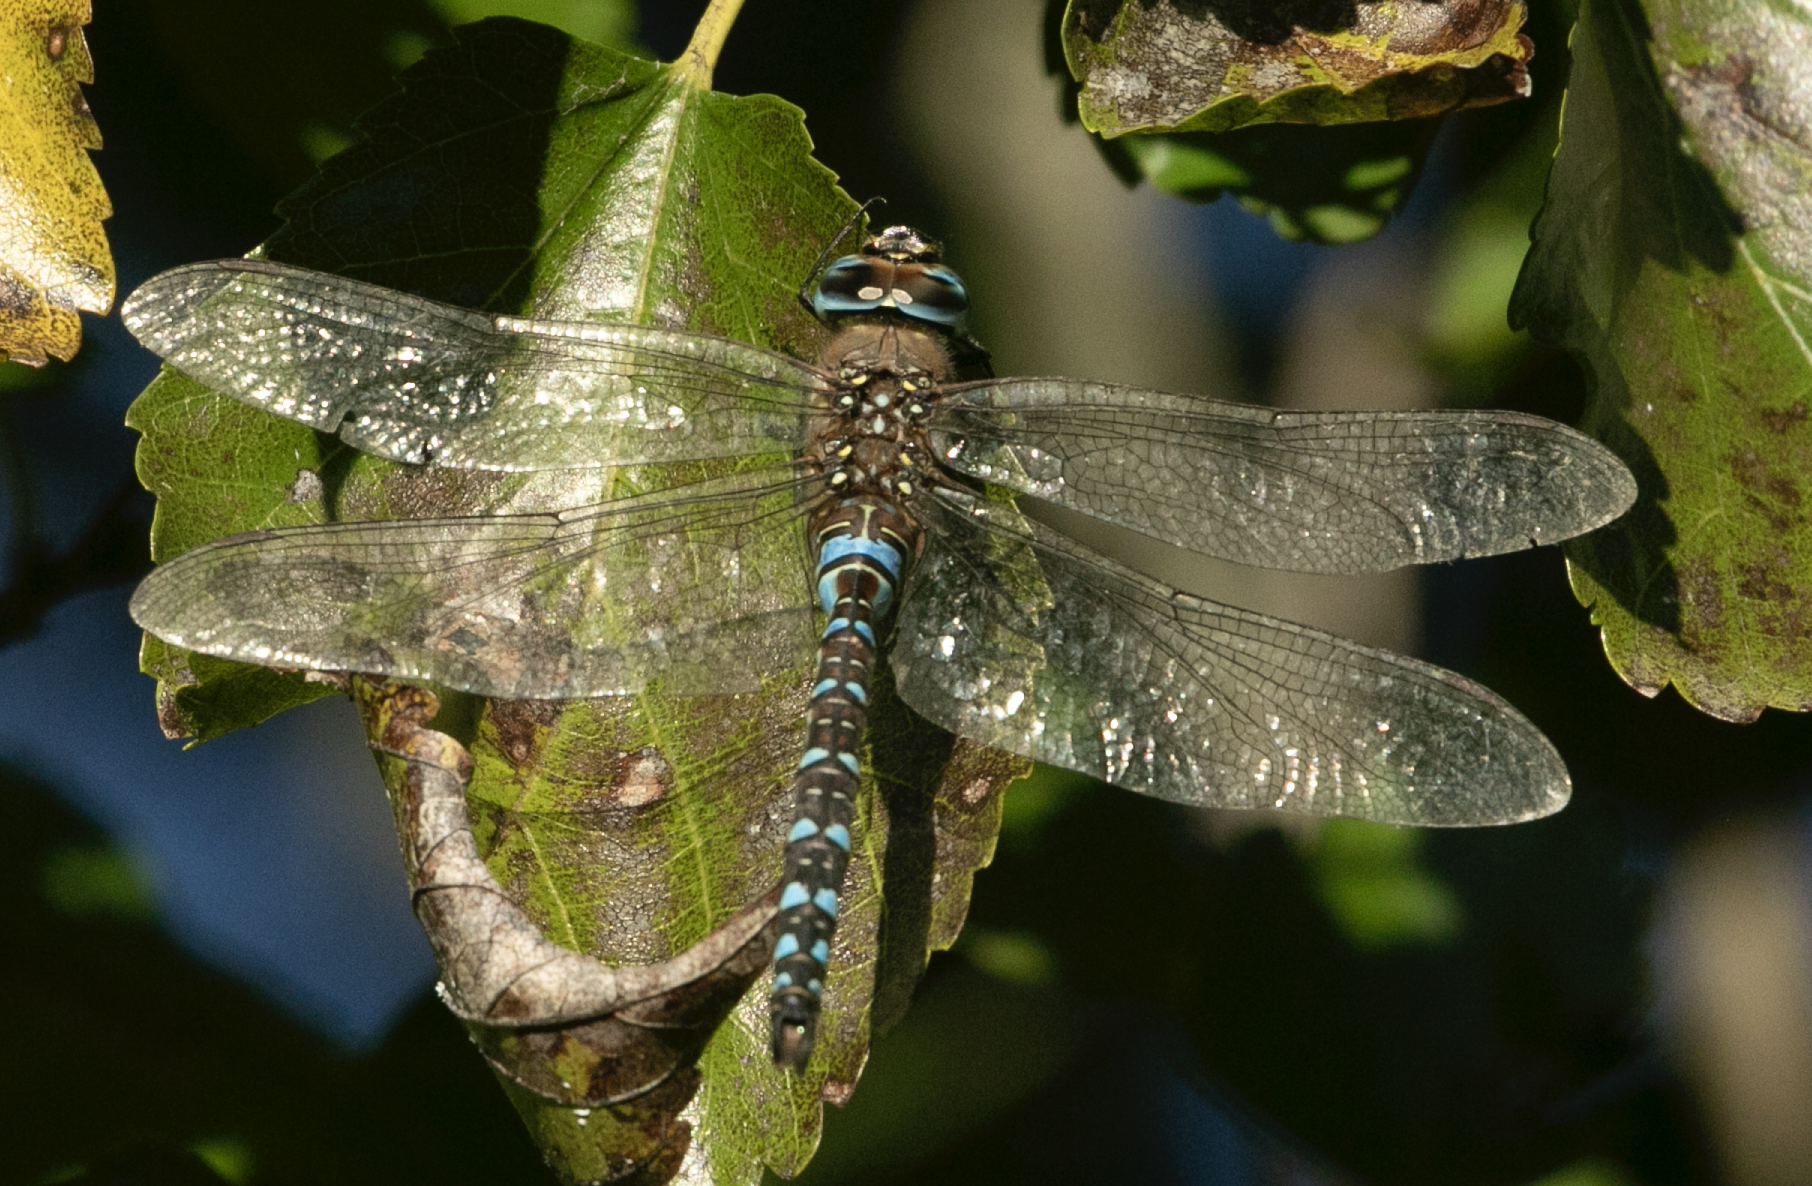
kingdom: Animalia
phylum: Arthropoda
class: Insecta
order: Odonata
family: Aeshnidae
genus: Aeshna
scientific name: Aeshna mixta
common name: Migrant hawker
